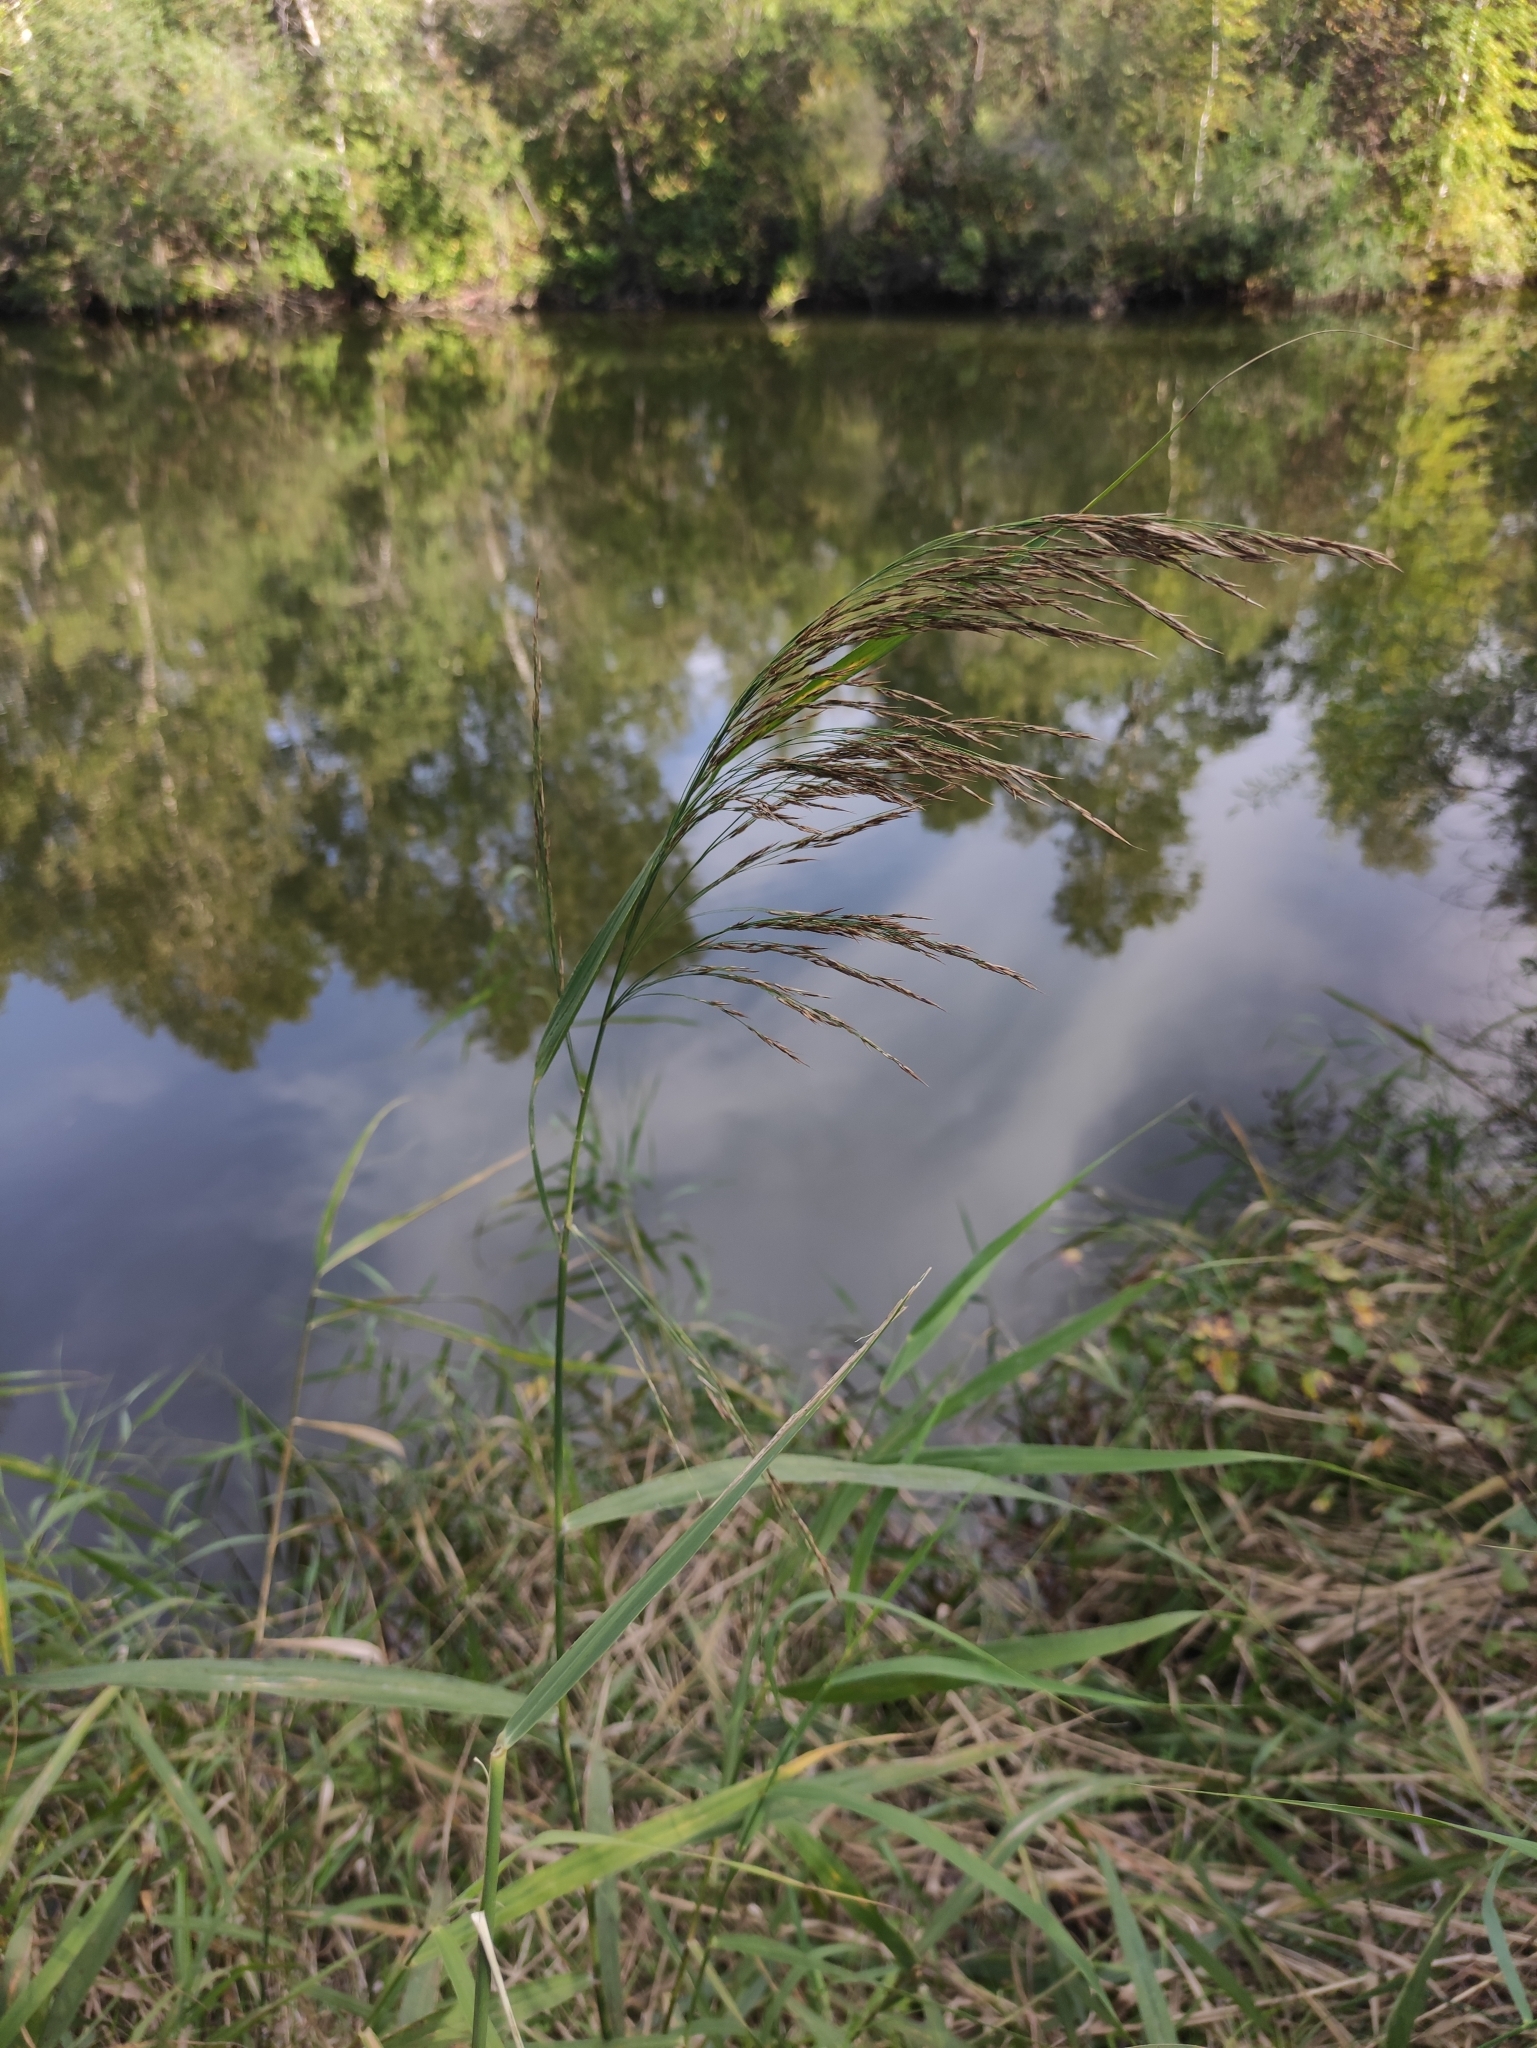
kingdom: Plantae
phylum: Tracheophyta
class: Liliopsida
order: Poales
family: Poaceae
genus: Phragmites
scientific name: Phragmites australis
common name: Common reed
